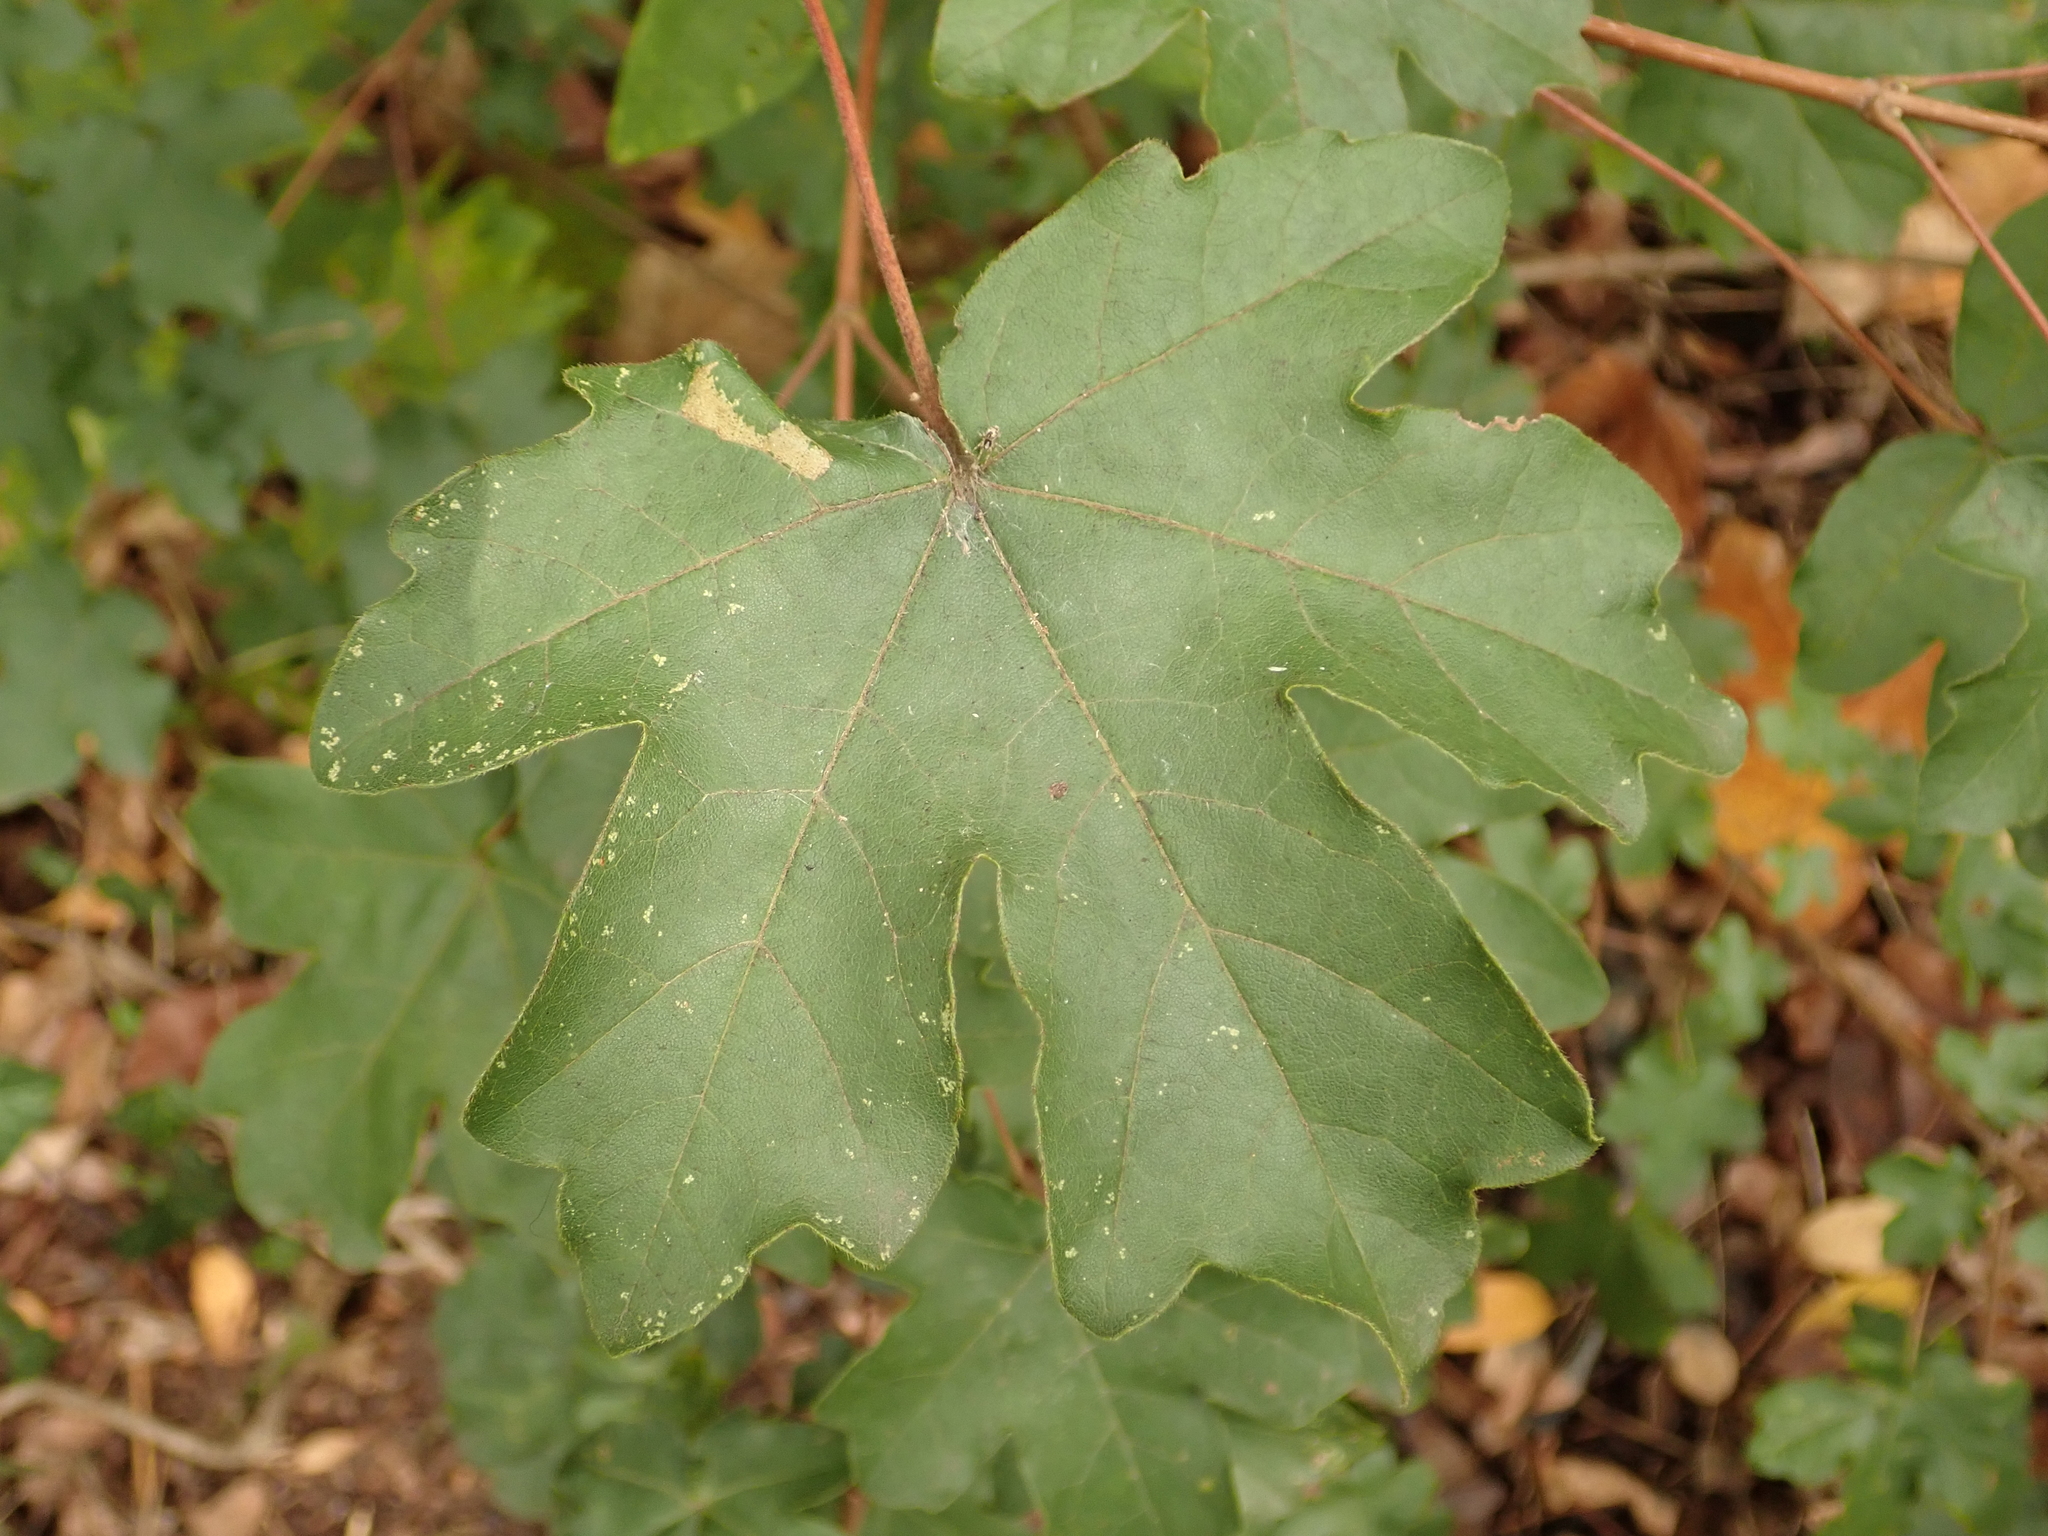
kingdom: Plantae
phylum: Tracheophyta
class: Magnoliopsida
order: Sapindales
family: Sapindaceae
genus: Acer
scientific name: Acer campestre
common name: Field maple
